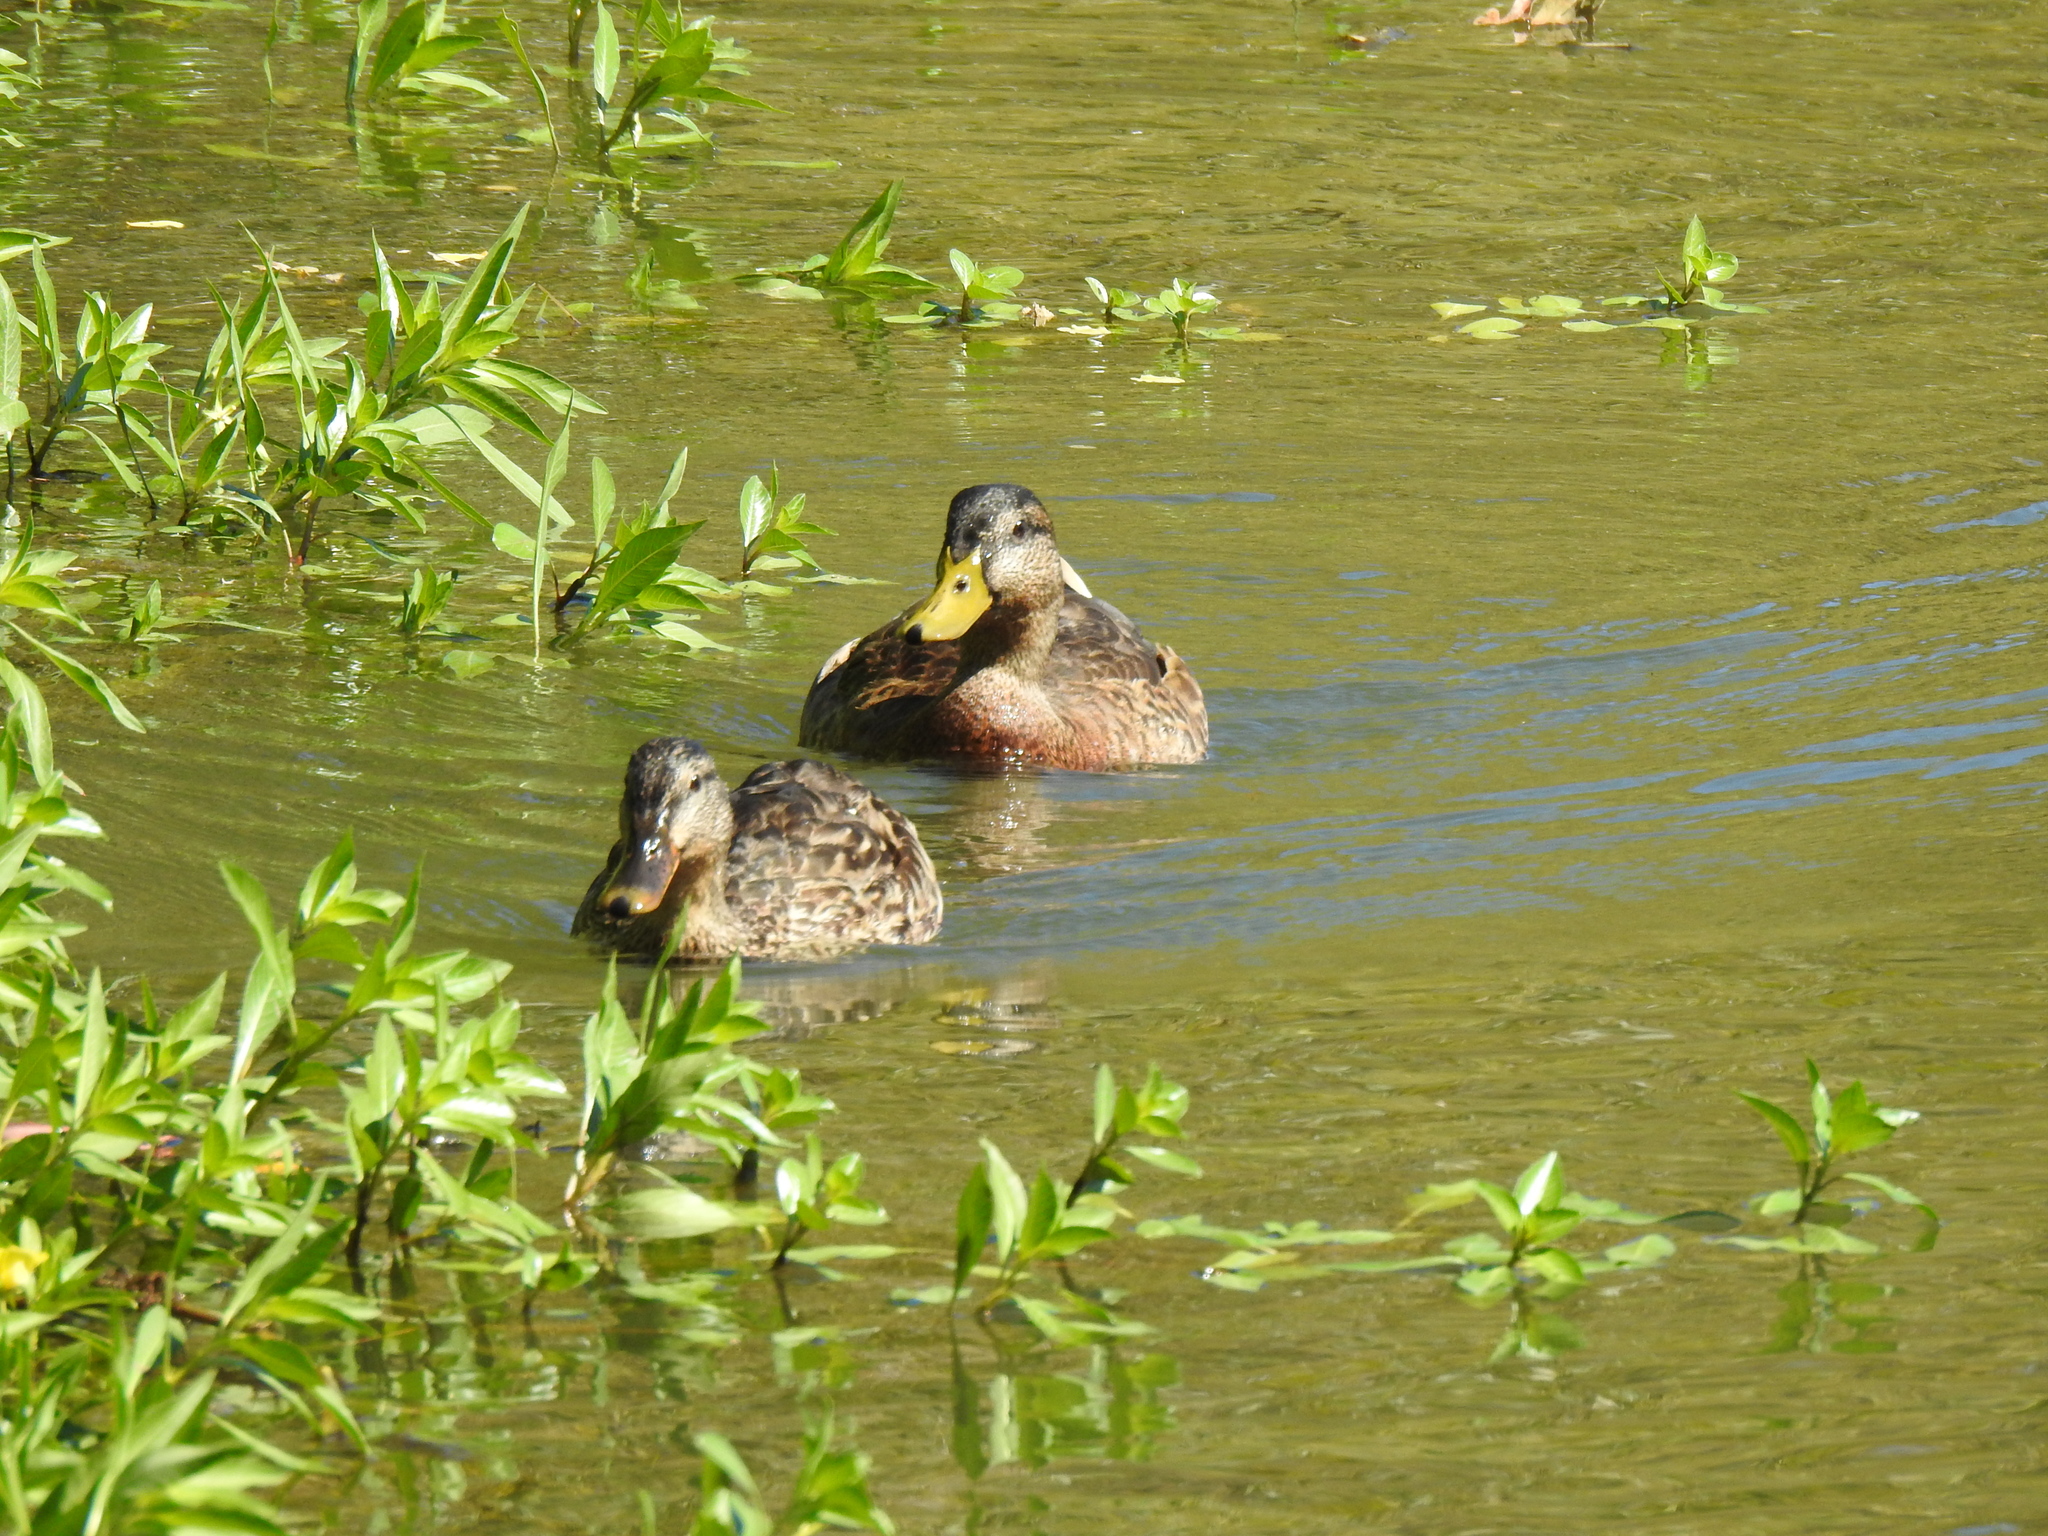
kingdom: Animalia
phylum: Chordata
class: Aves
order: Anseriformes
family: Anatidae
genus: Anas
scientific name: Anas platyrhynchos
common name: Mallard
